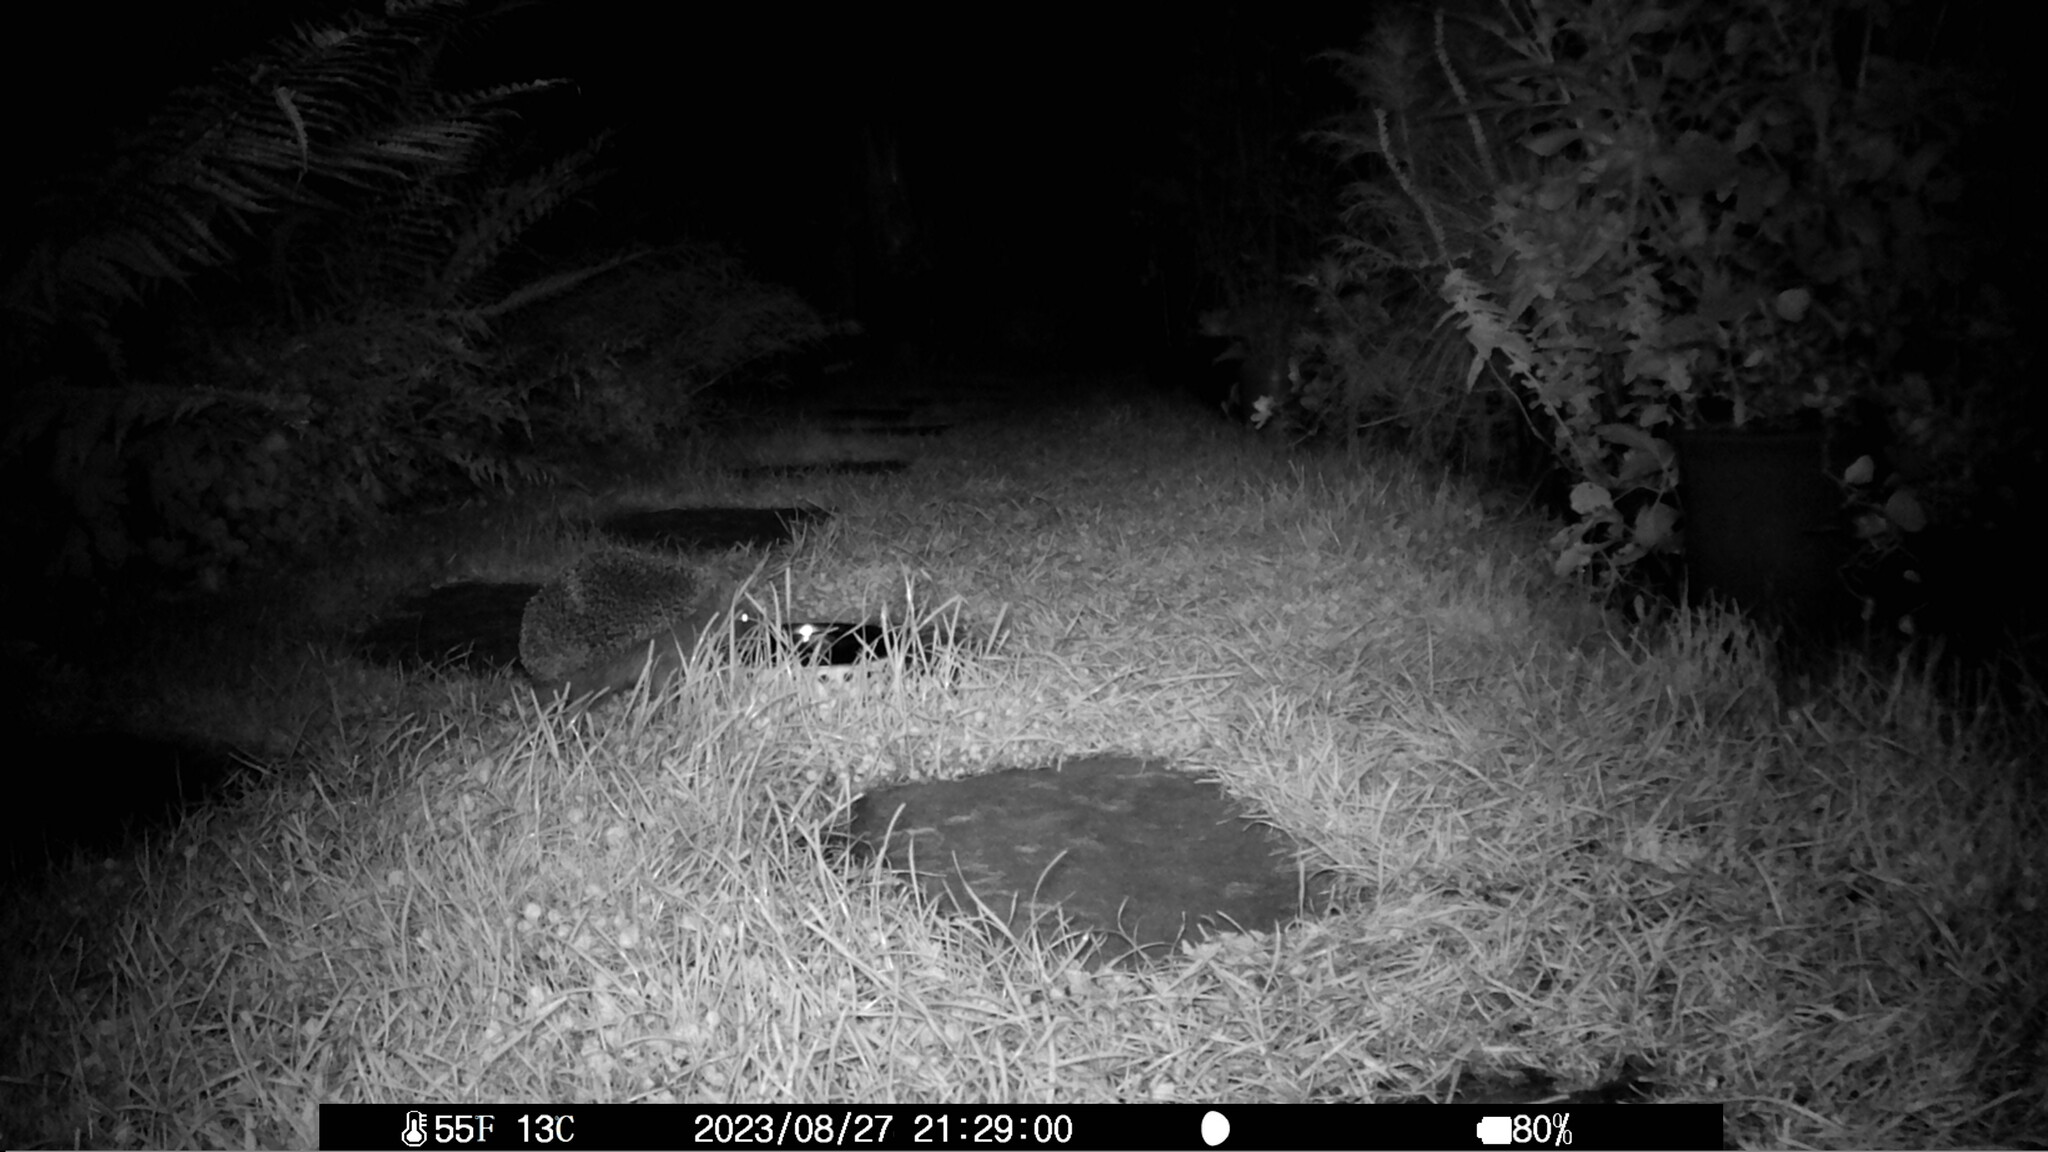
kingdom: Animalia
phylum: Chordata
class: Mammalia
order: Erinaceomorpha
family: Erinaceidae
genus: Erinaceus
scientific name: Erinaceus europaeus
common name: West european hedgehog
